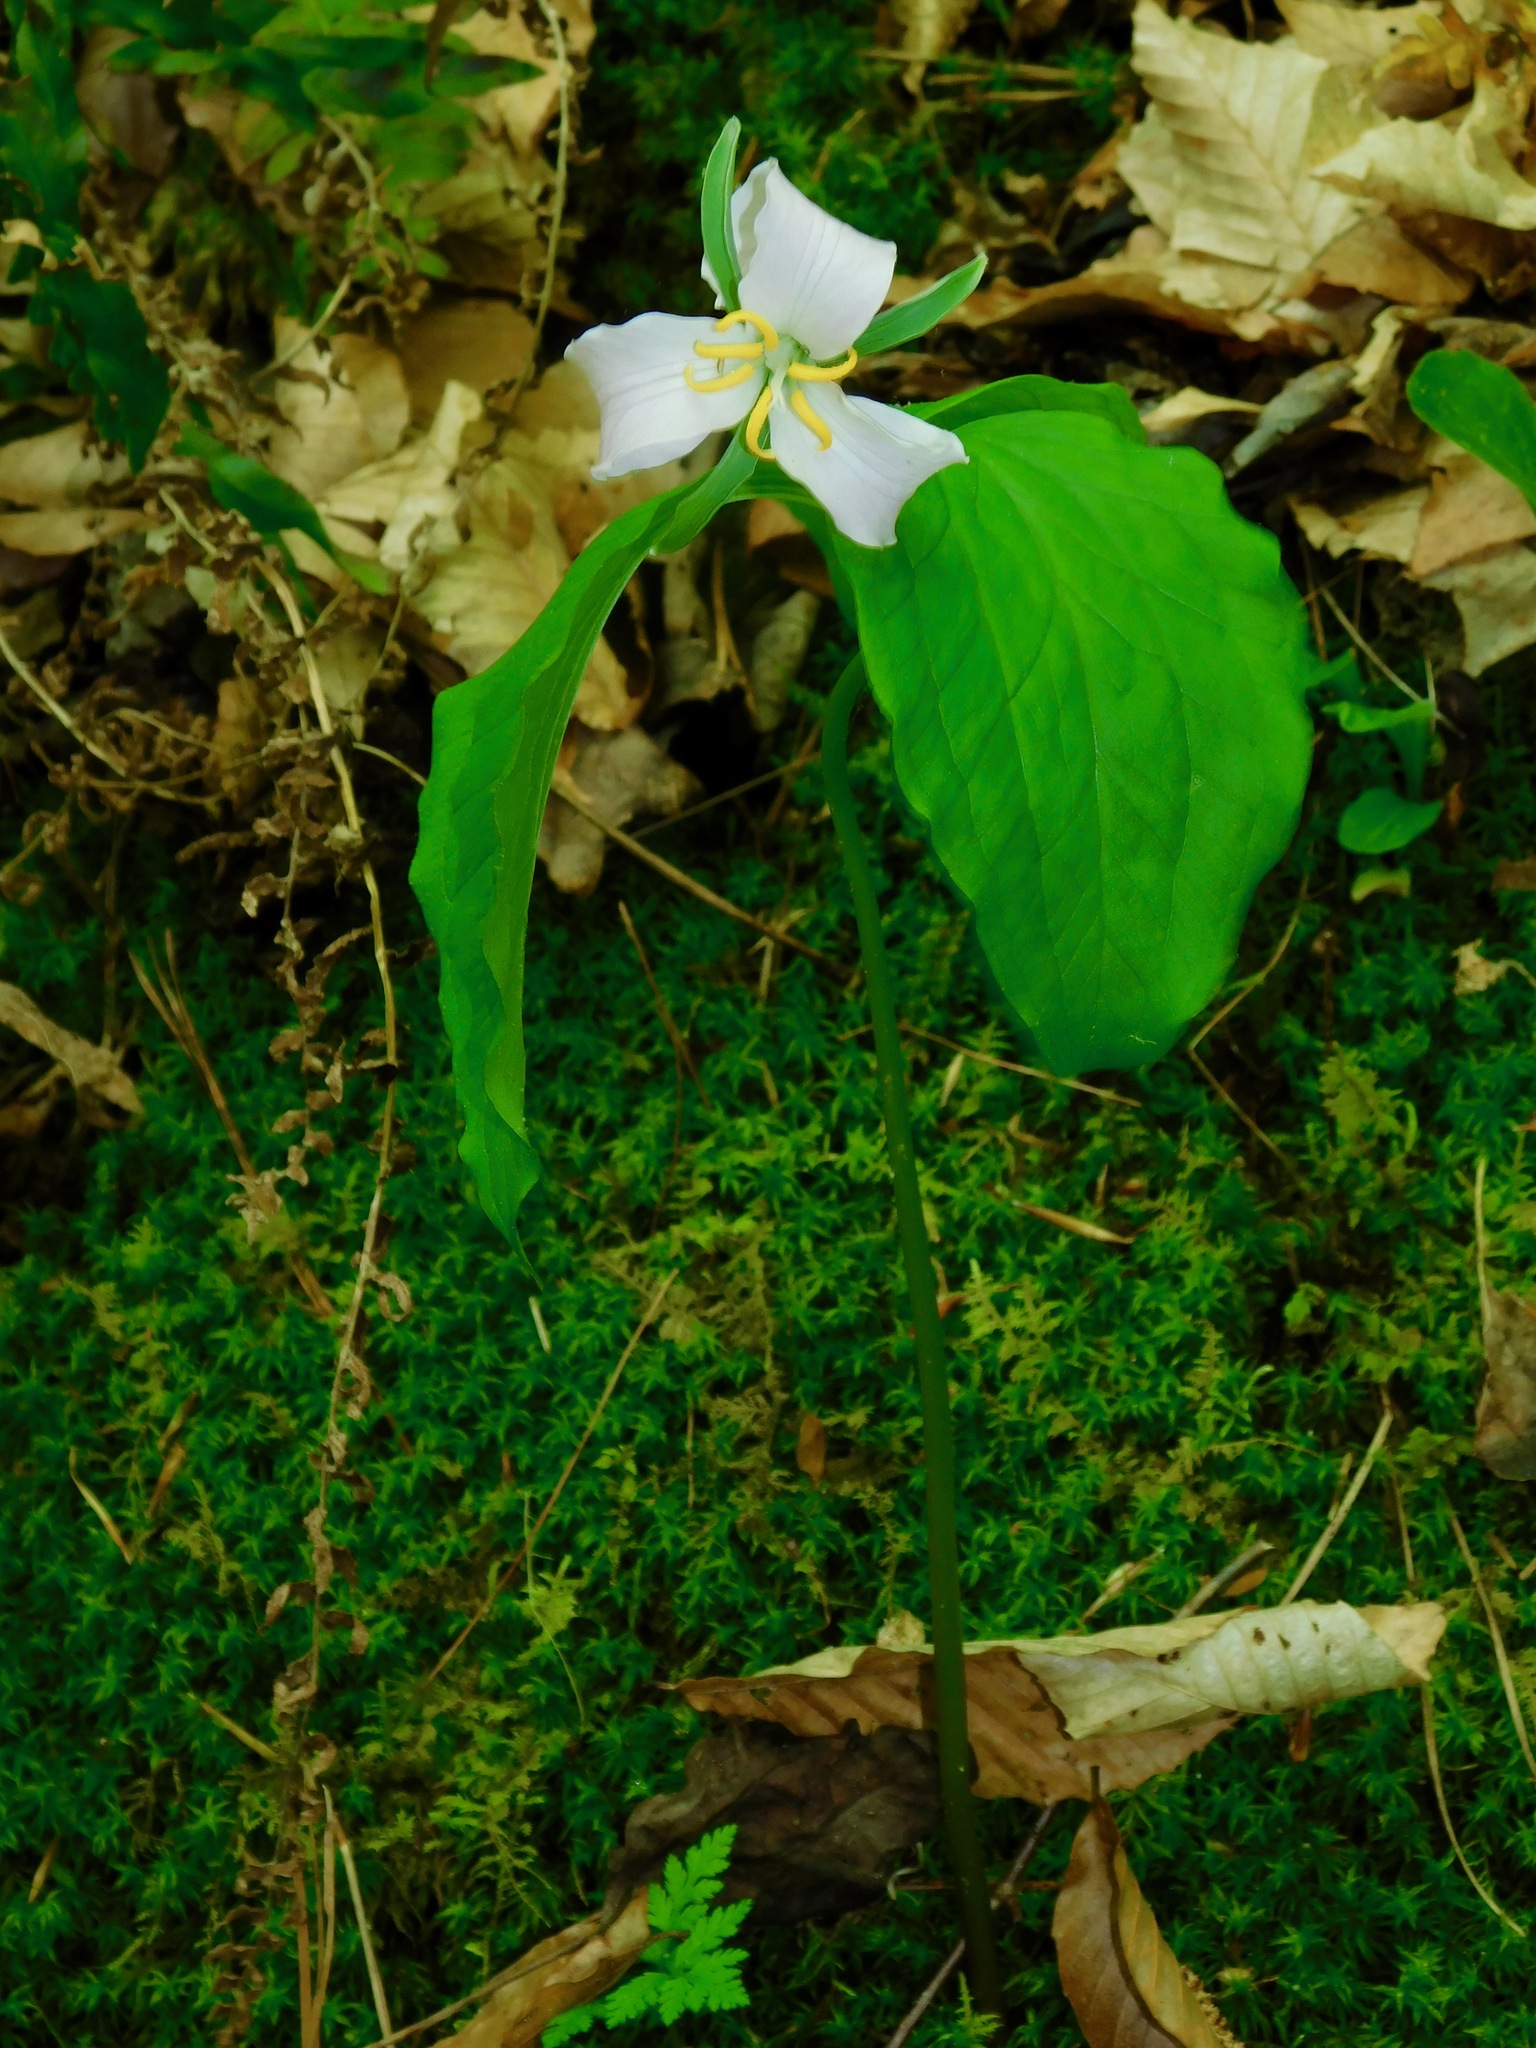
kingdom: Plantae
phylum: Tracheophyta
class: Liliopsida
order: Liliales
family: Melanthiaceae
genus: Trillium
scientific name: Trillium catesbaei
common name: Bashful trillium
